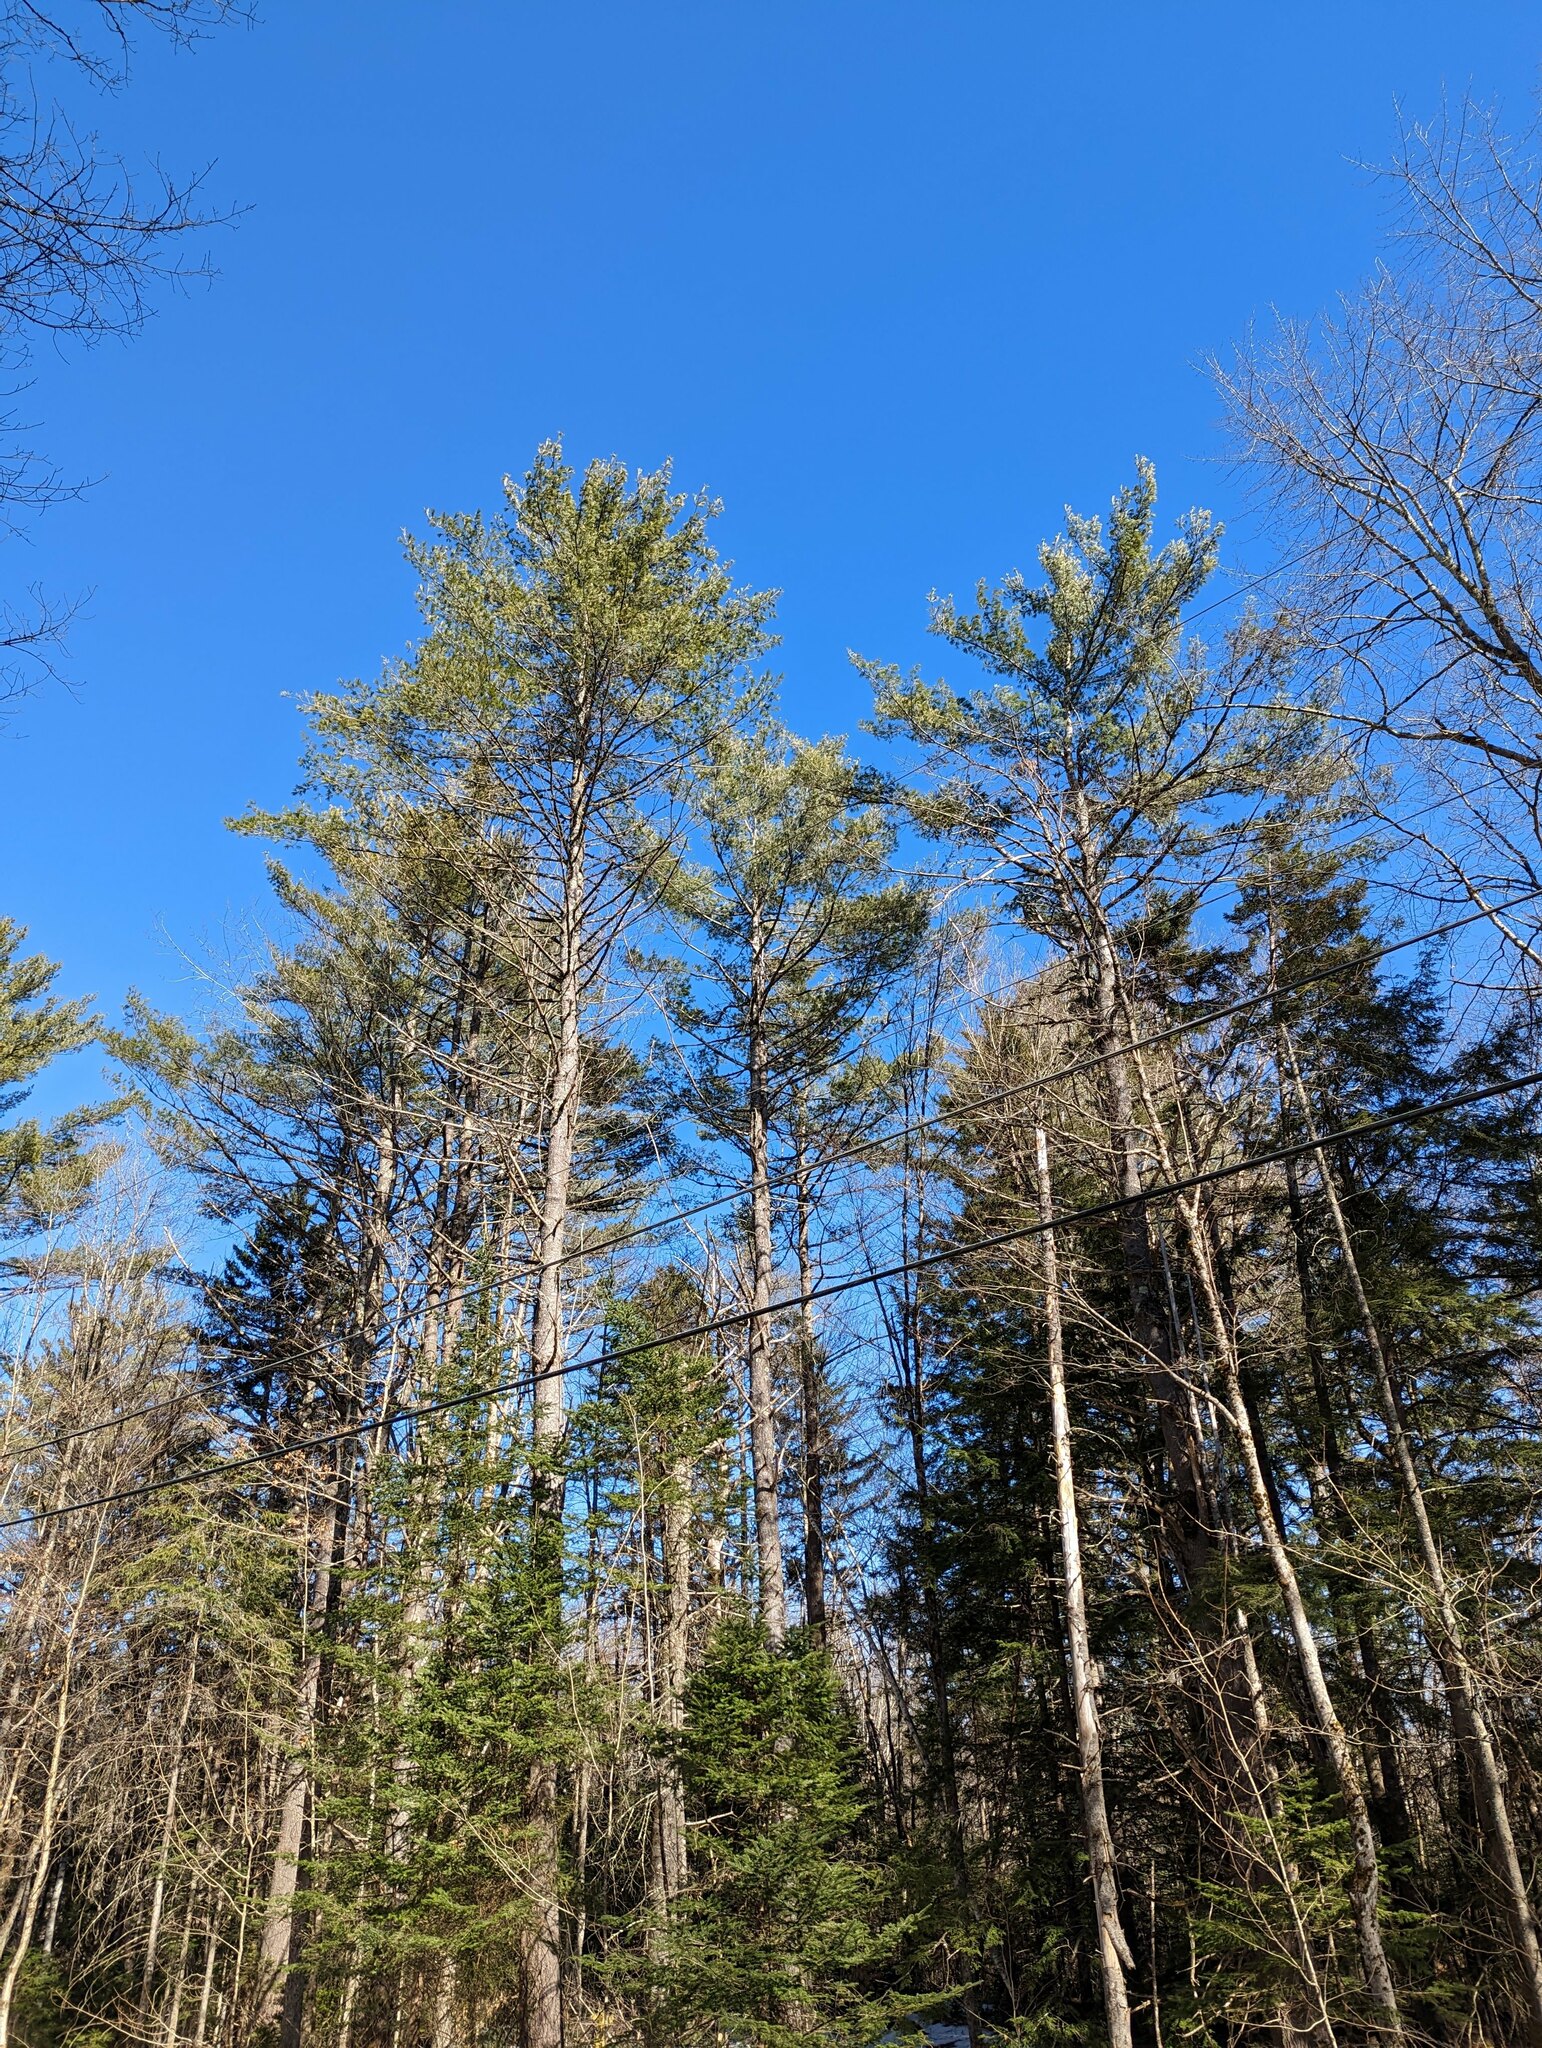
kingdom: Plantae
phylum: Tracheophyta
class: Pinopsida
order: Pinales
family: Pinaceae
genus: Pinus
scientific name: Pinus strobus
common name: Weymouth pine
